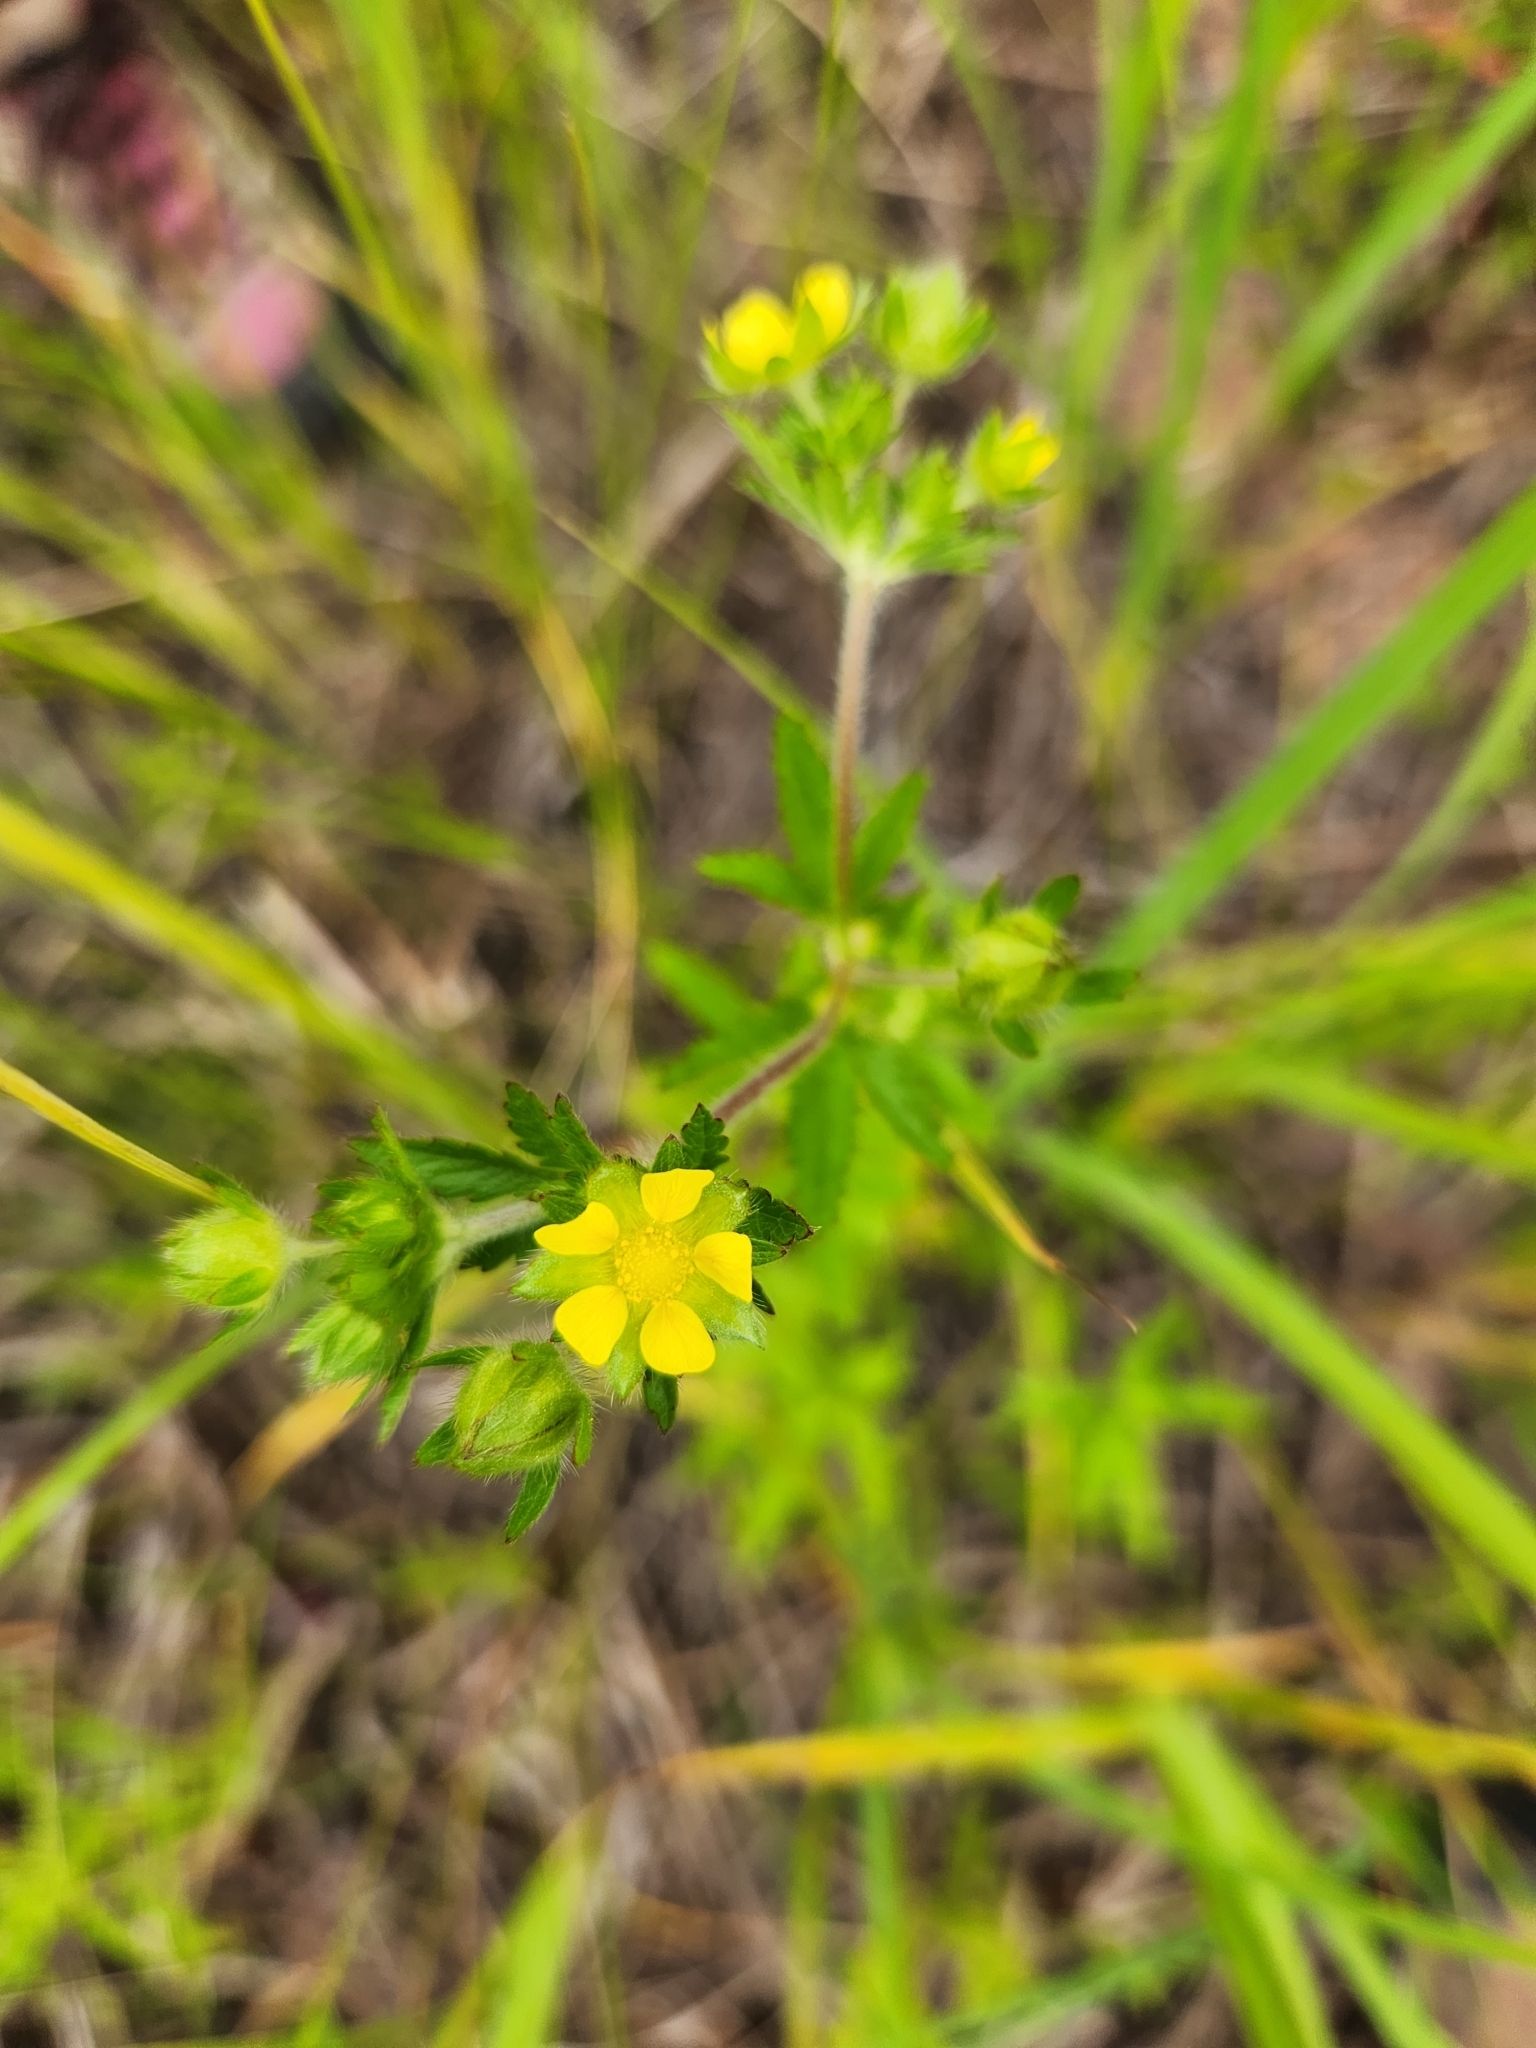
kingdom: Plantae
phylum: Tracheophyta
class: Magnoliopsida
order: Rosales
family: Rosaceae
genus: Potentilla
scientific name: Potentilla norvegica
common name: Ternate-leaved cinquefoil
